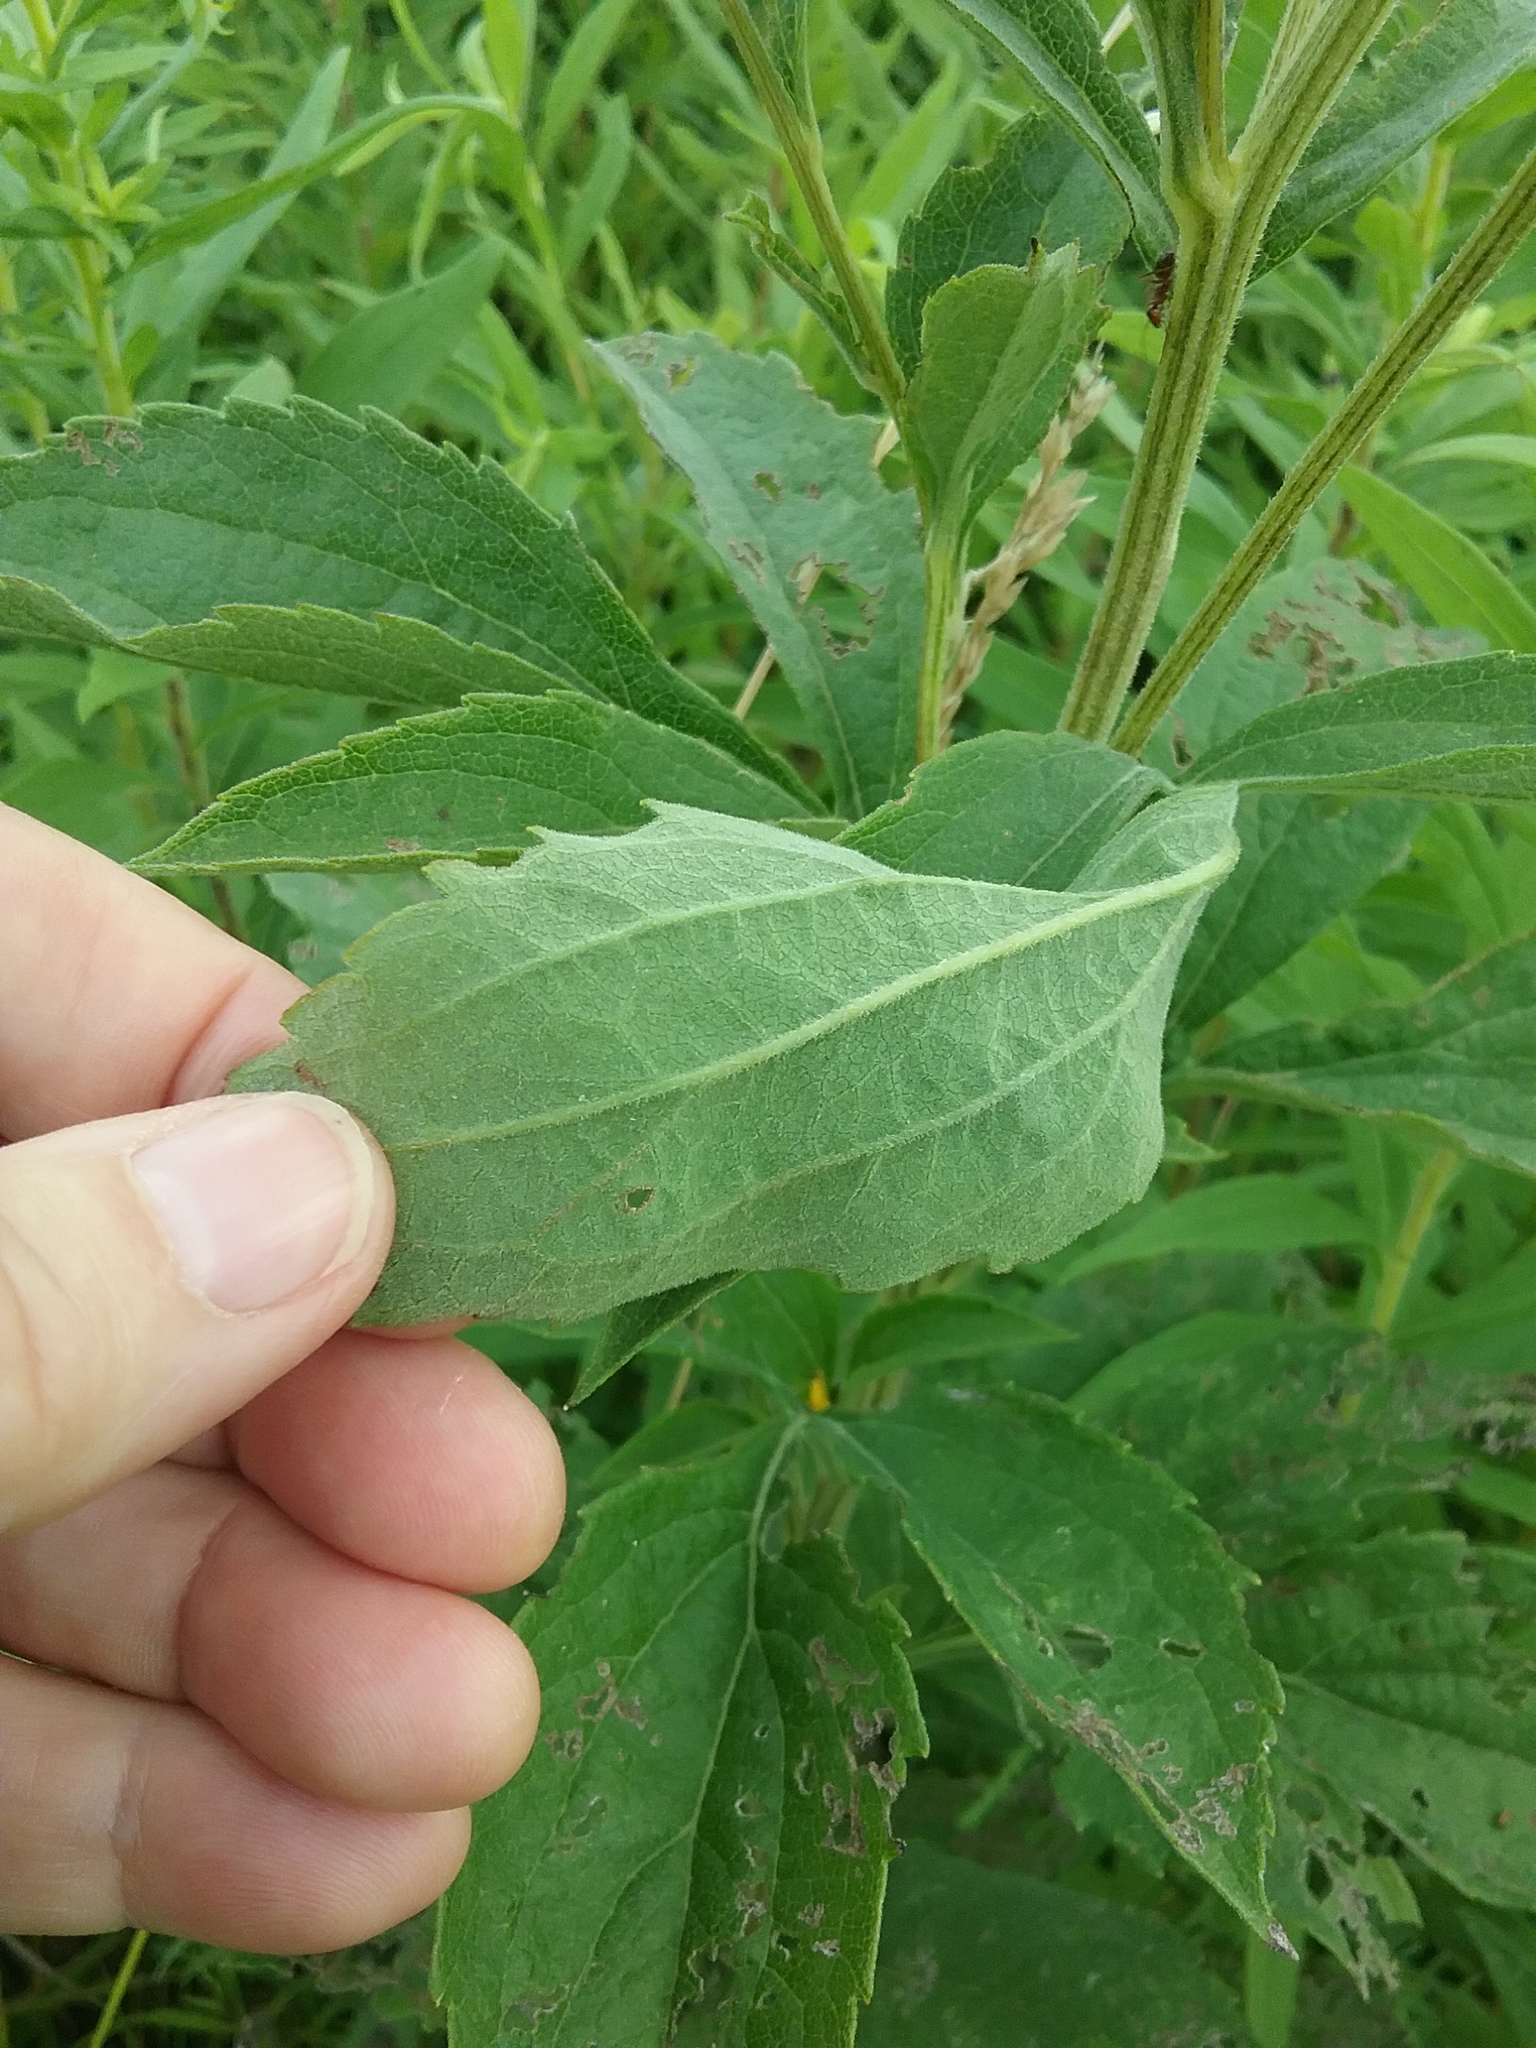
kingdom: Plantae
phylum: Tracheophyta
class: Magnoliopsida
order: Asterales
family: Asteraceae
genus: Rudbeckia
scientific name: Rudbeckia subtomentosa
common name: Sweet coneflower
